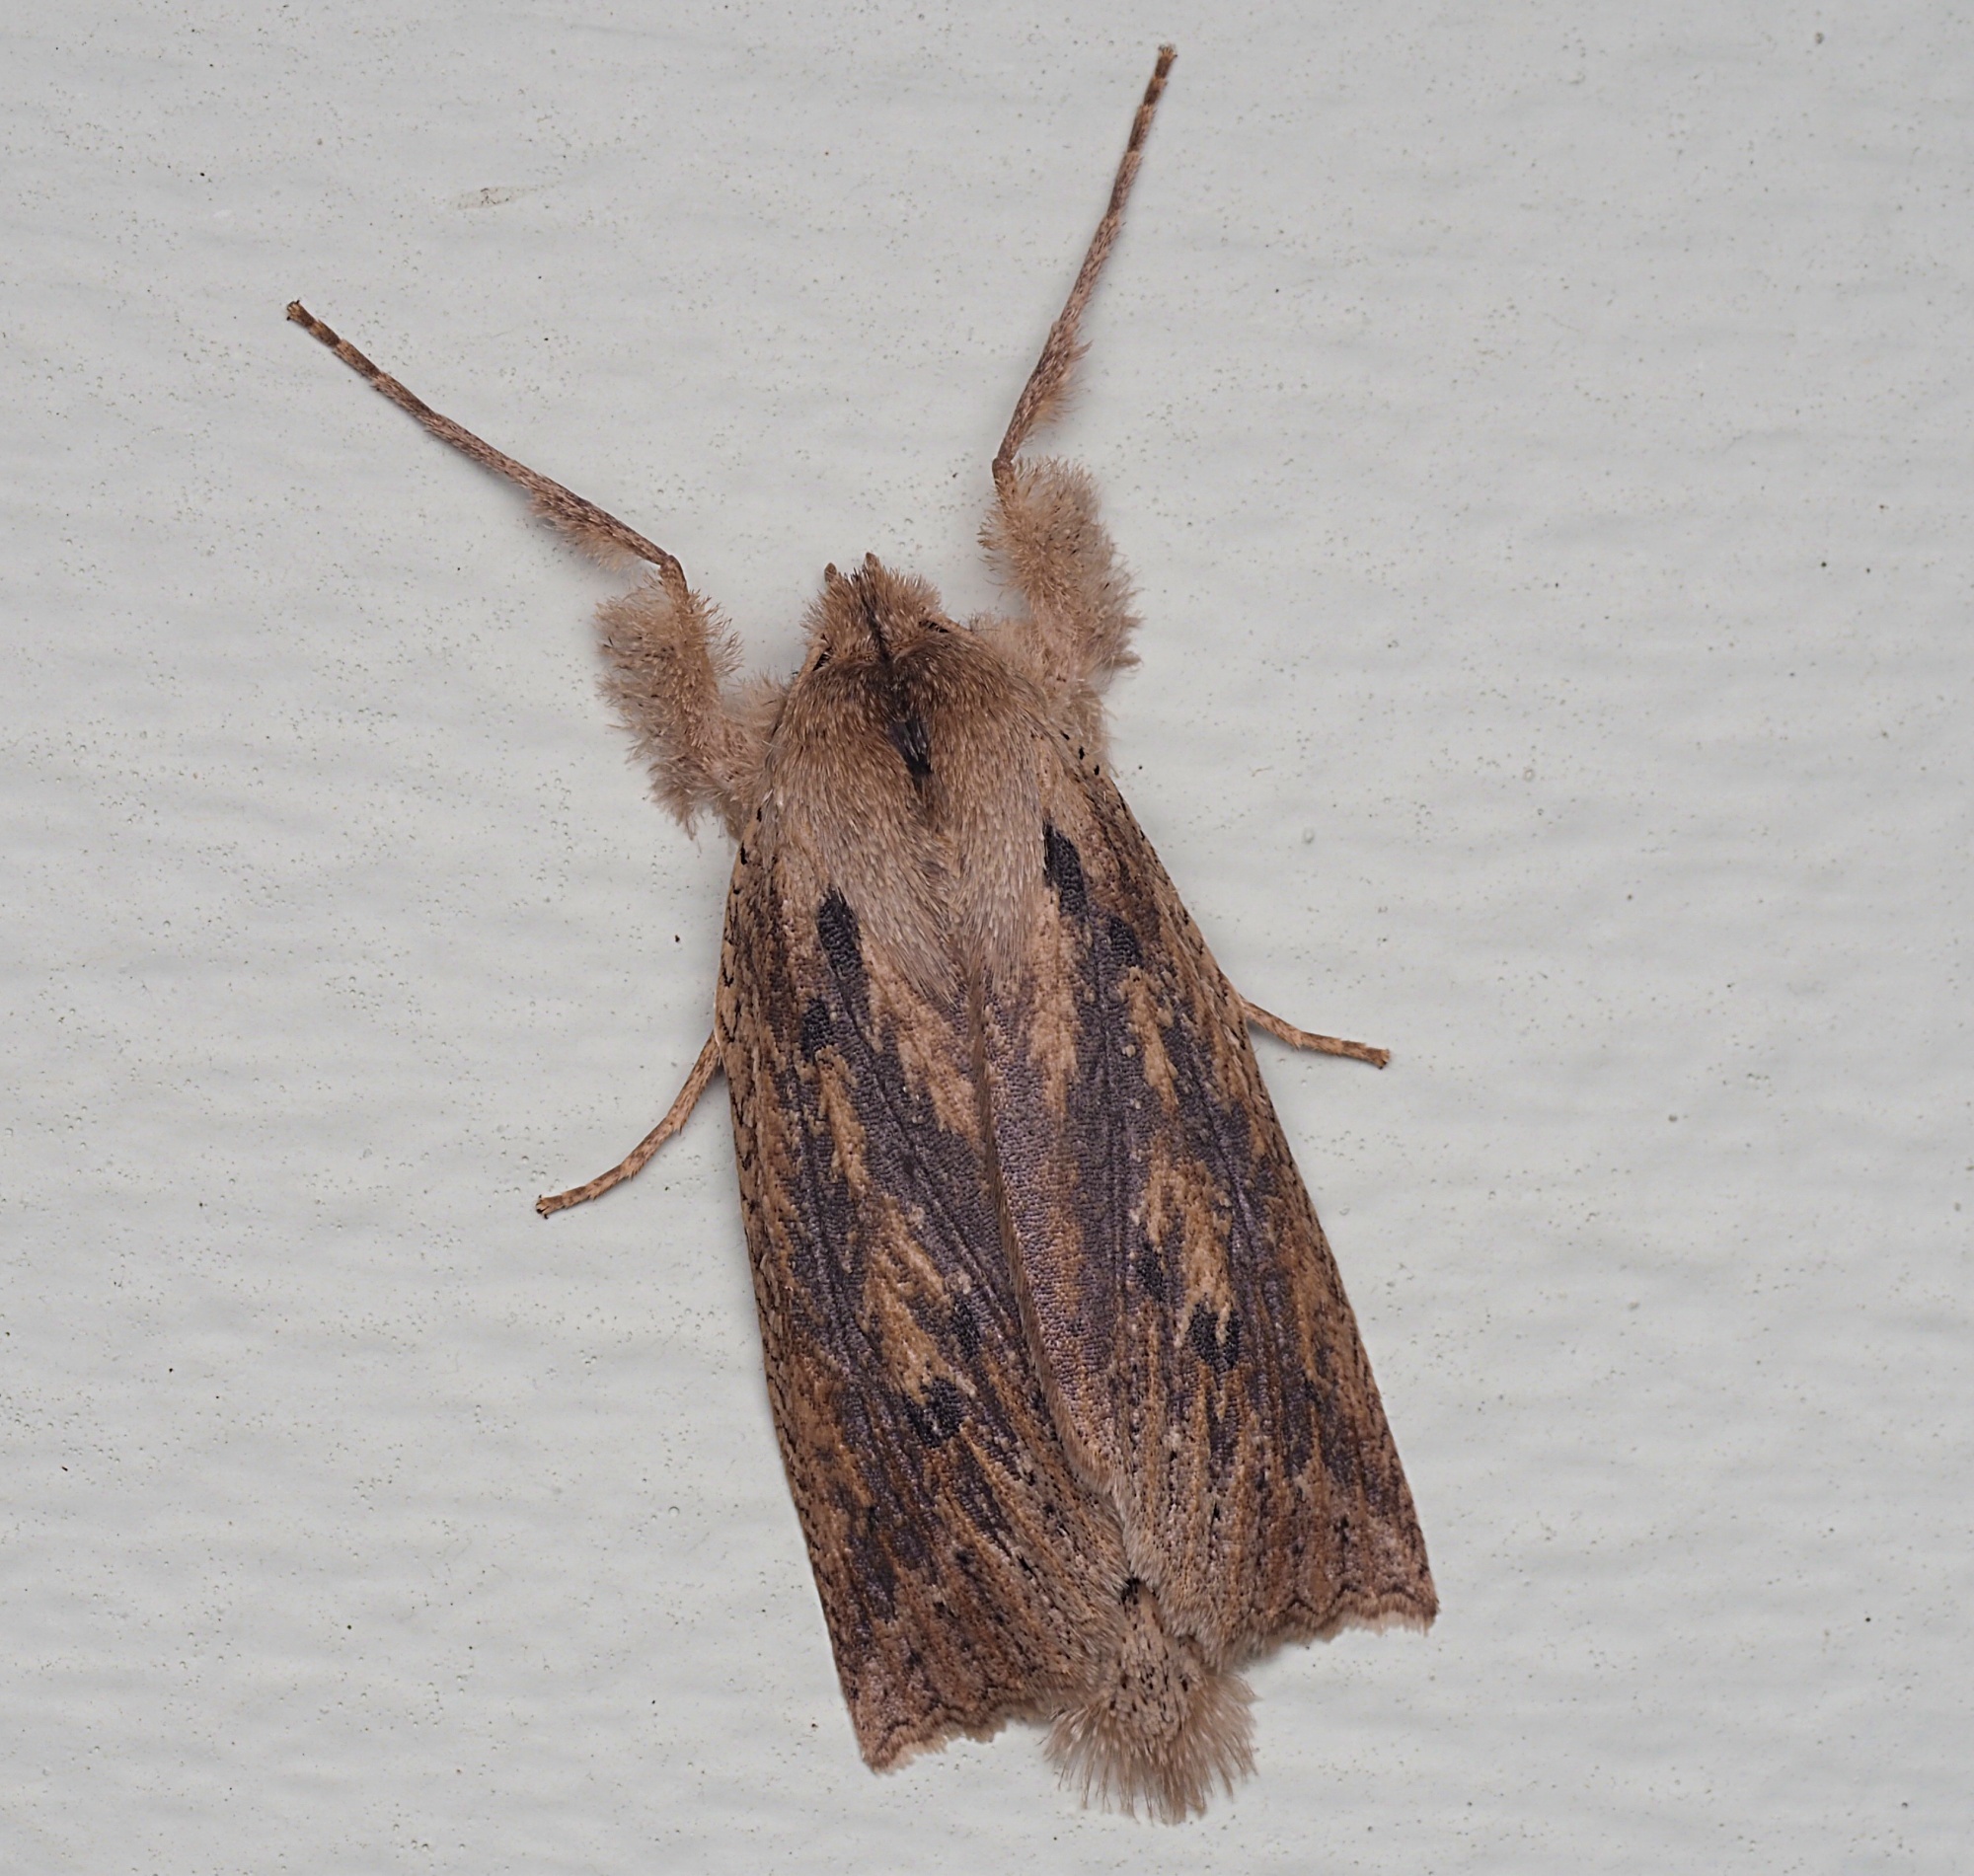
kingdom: Animalia
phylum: Arthropoda
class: Insecta
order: Lepidoptera
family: Geometridae
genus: Declana
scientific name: Declana leptomera
